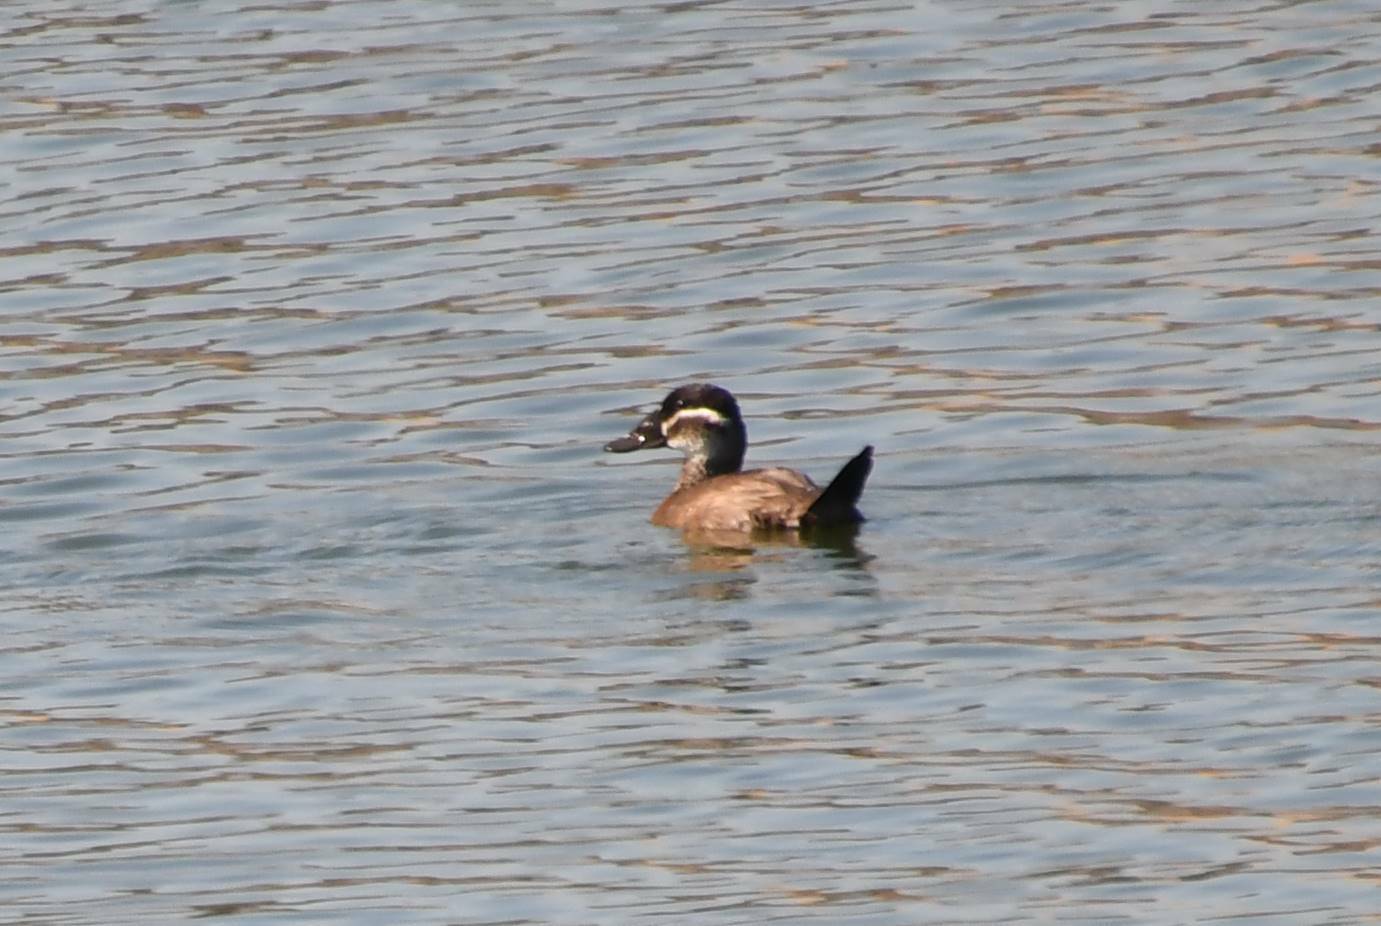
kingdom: Animalia
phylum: Chordata
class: Aves
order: Anseriformes
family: Anatidae
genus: Oxyura
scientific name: Oxyura leucocephala
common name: White-headed duck
